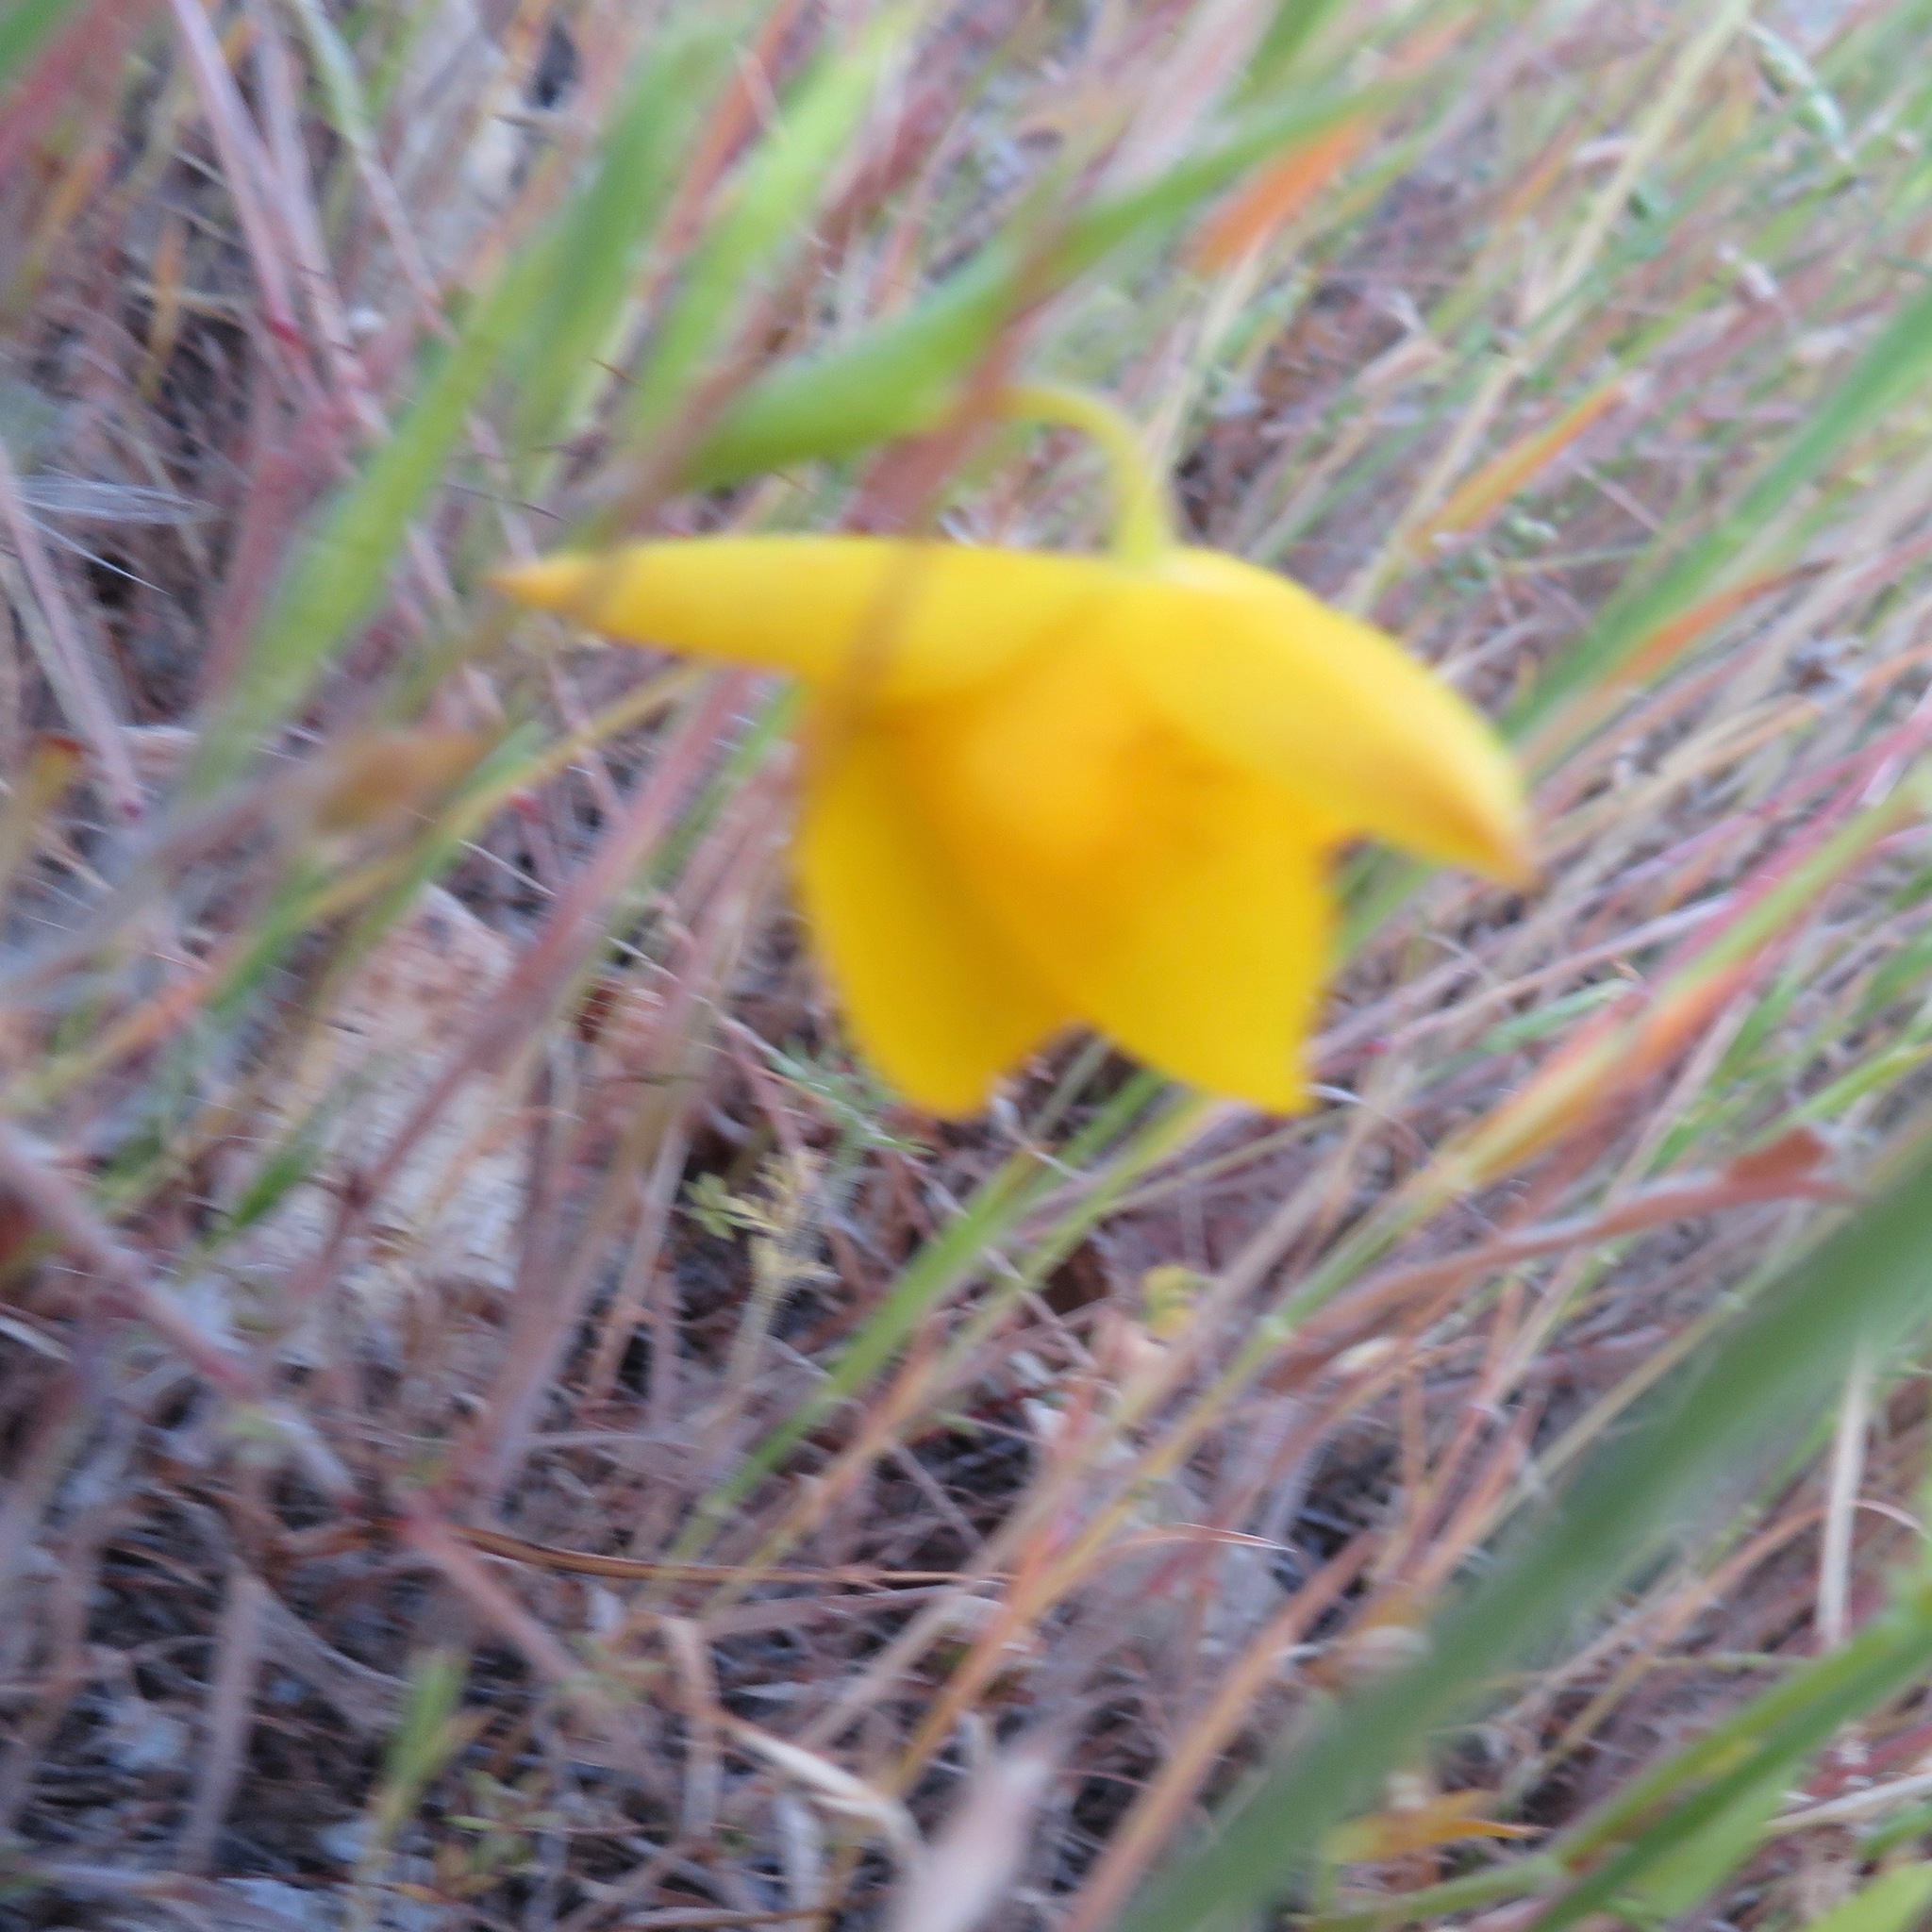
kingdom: Plantae
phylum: Tracheophyta
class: Liliopsida
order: Liliales
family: Liliaceae
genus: Calochortus
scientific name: Calochortus amabilis
